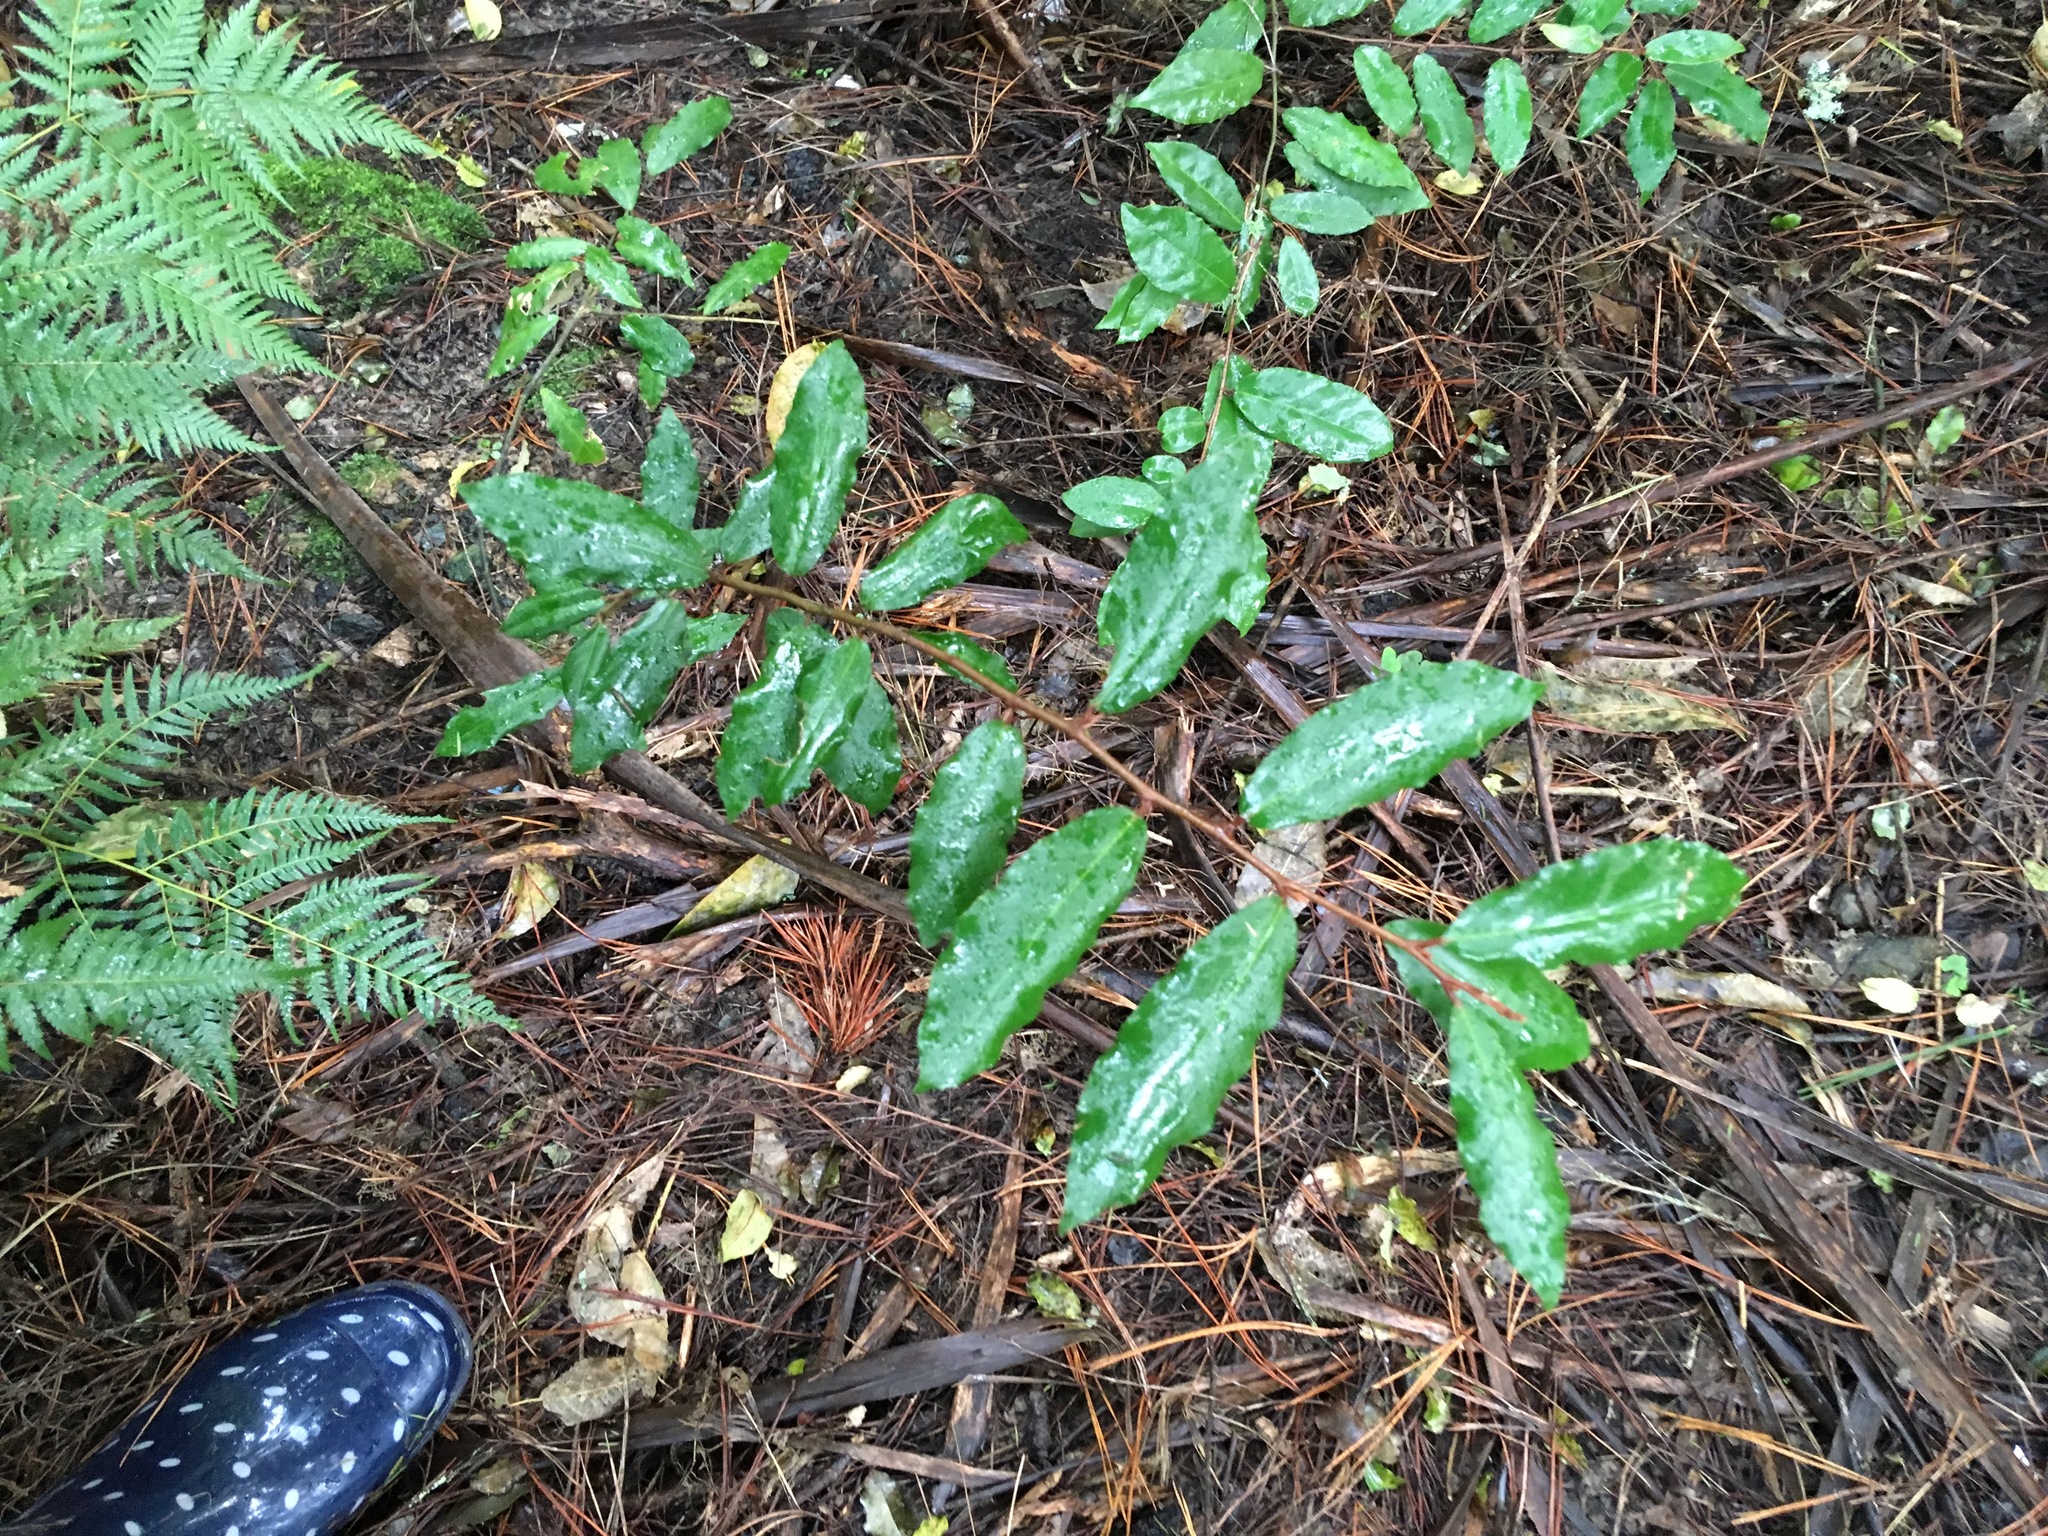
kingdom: Plantae
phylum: Tracheophyta
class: Magnoliopsida
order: Rosales
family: Elaeagnaceae
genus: Elaeagnus
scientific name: Elaeagnus reflexa
